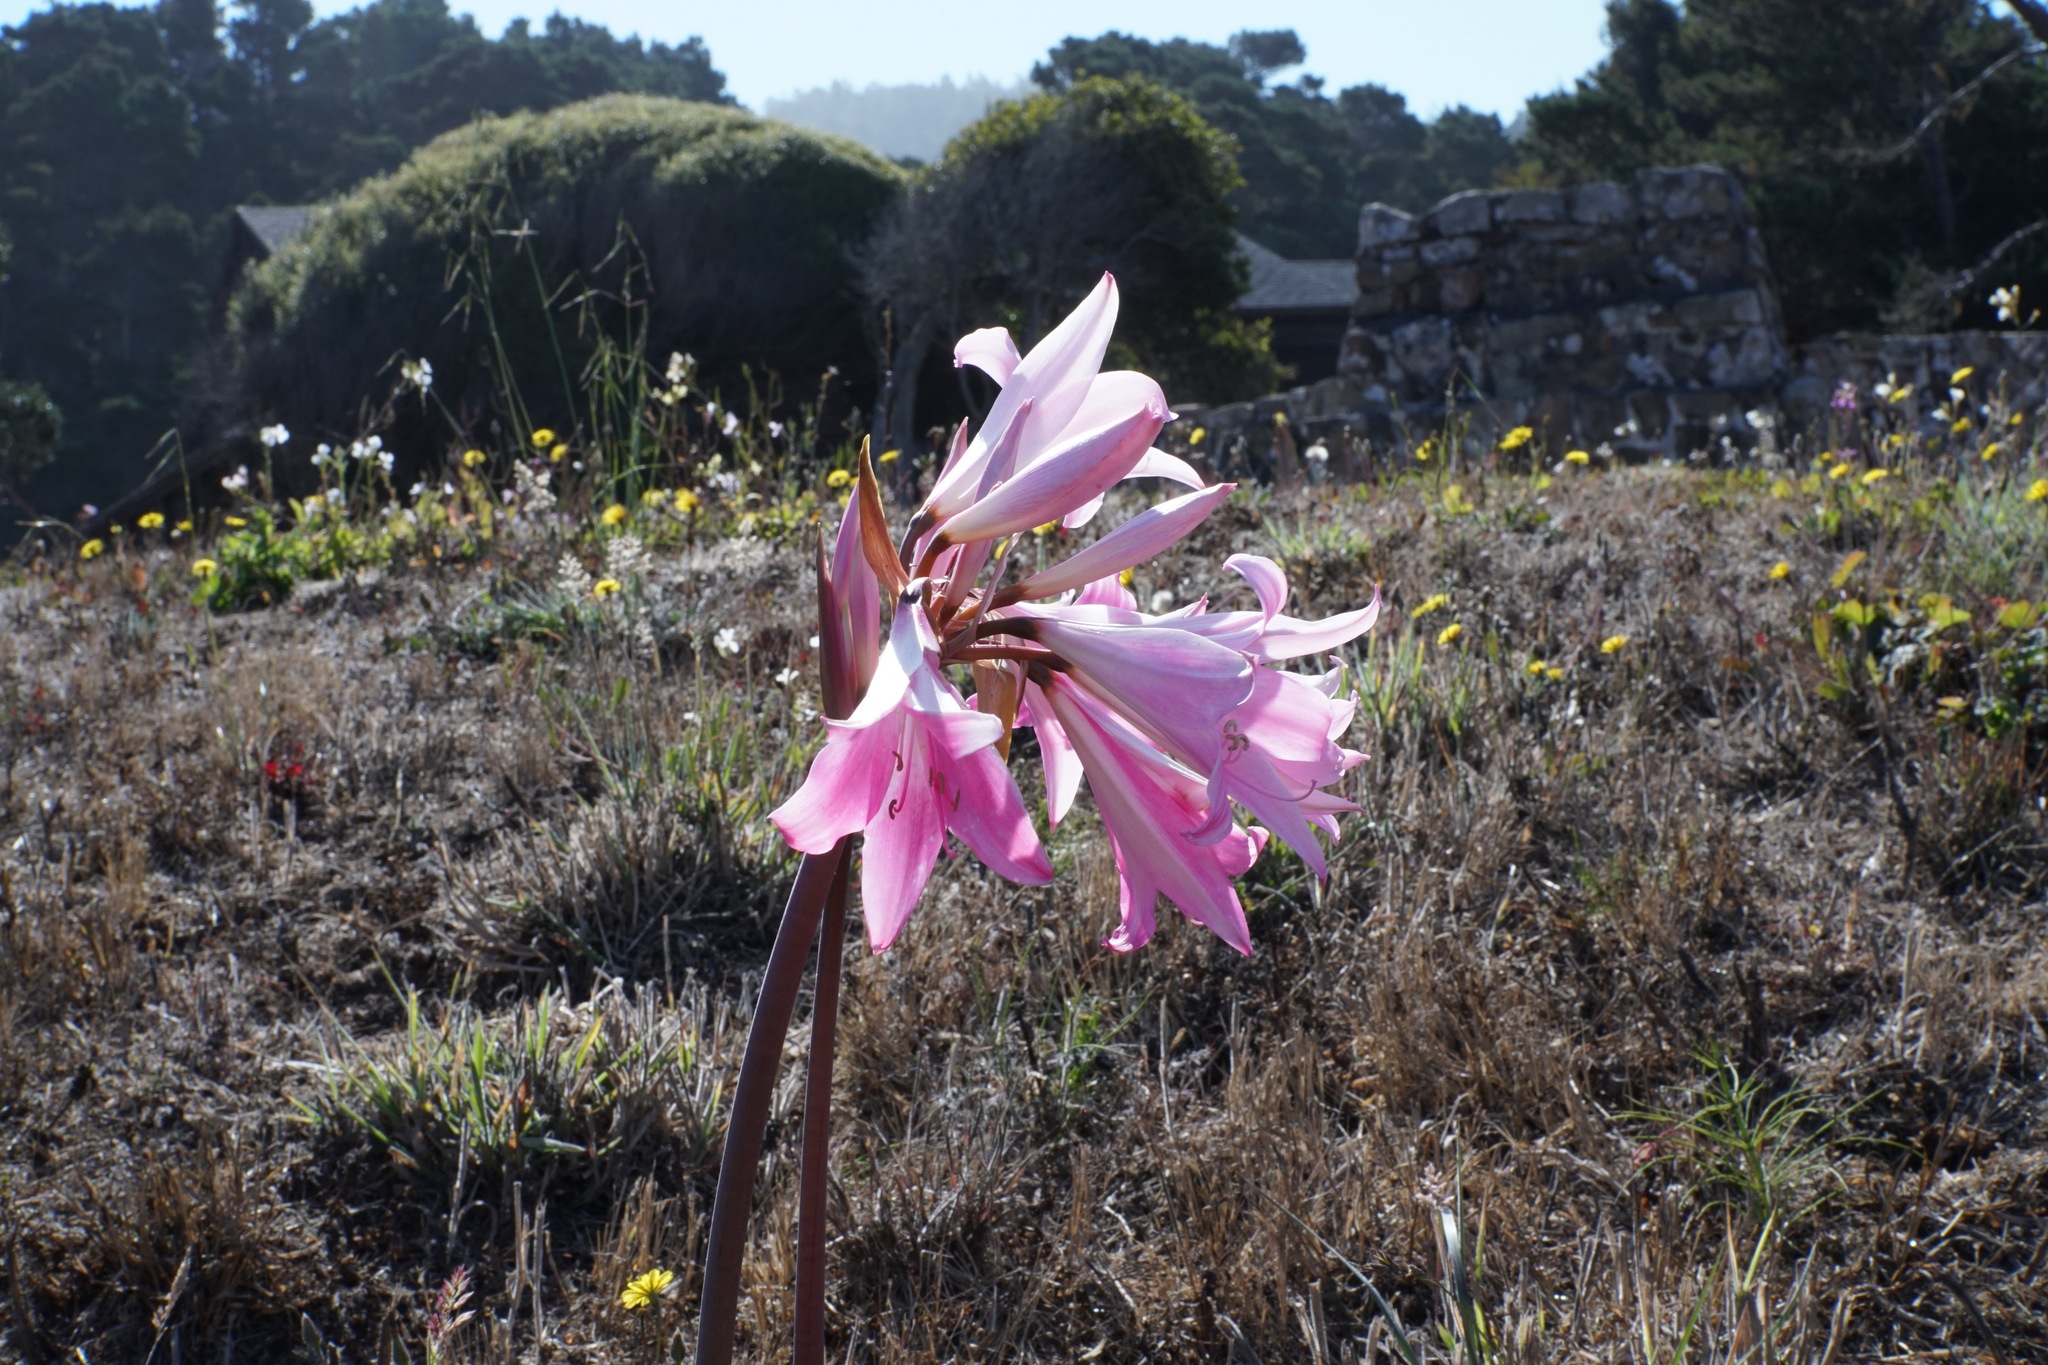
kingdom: Plantae
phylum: Tracheophyta
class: Liliopsida
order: Asparagales
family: Amaryllidaceae
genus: Amaryllis
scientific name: Amaryllis belladonna
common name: Jersey lily
